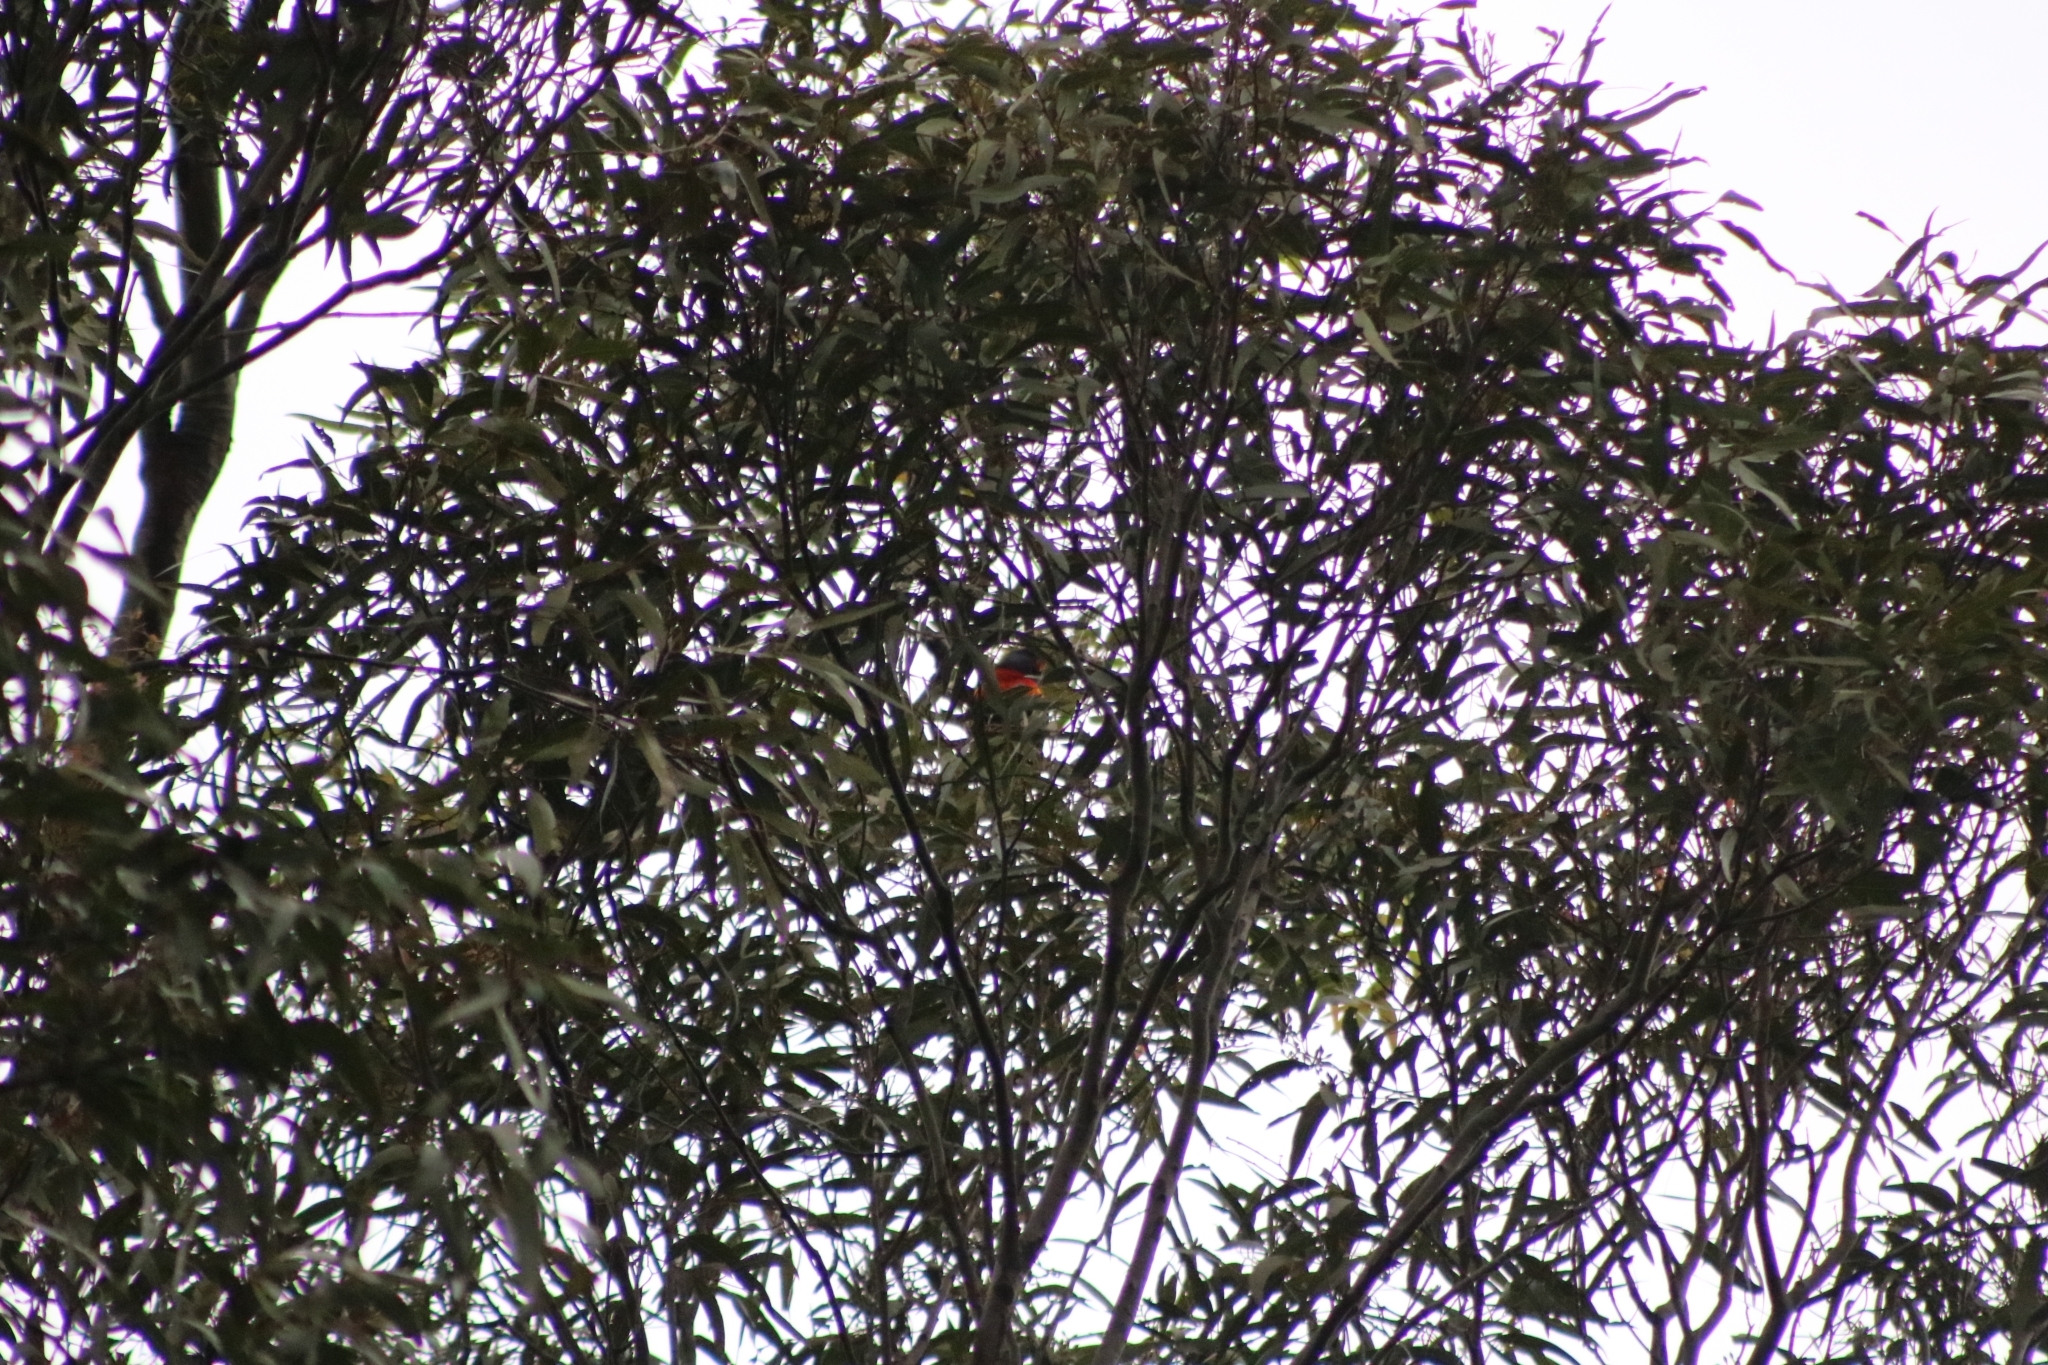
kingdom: Animalia
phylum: Chordata
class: Aves
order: Psittaciformes
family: Psittacidae
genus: Trichoglossus
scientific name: Trichoglossus haematodus
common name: Coconut lorikeet
